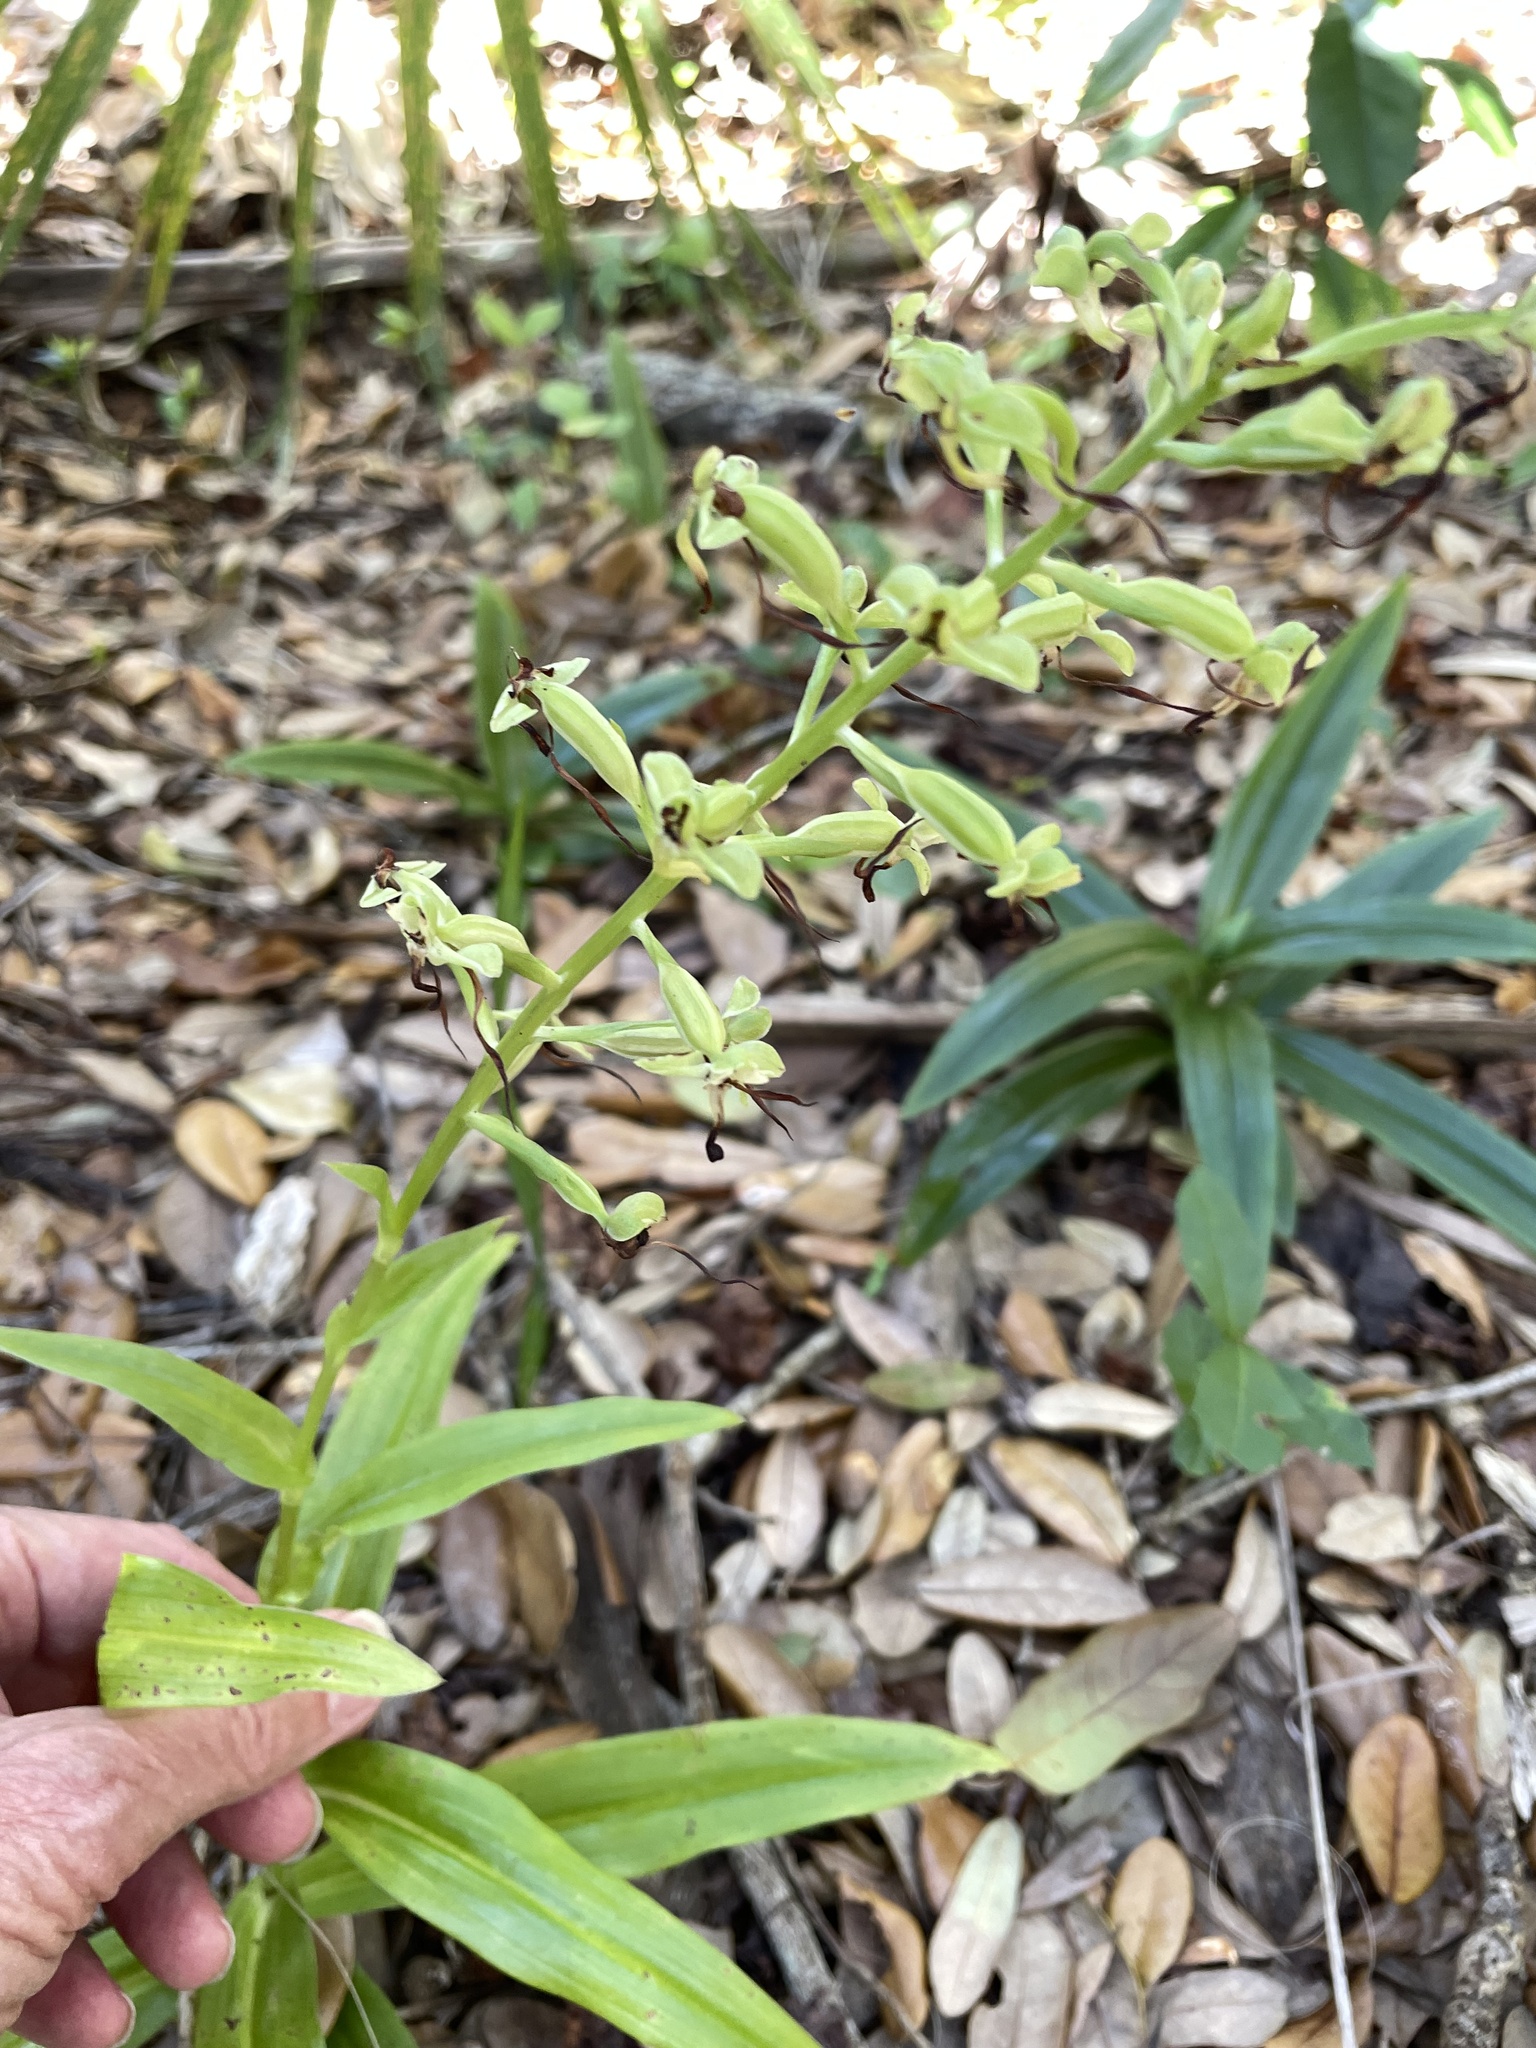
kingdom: Plantae
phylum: Tracheophyta
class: Liliopsida
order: Asparagales
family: Orchidaceae
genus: Habenaria
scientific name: Habenaria floribunda
